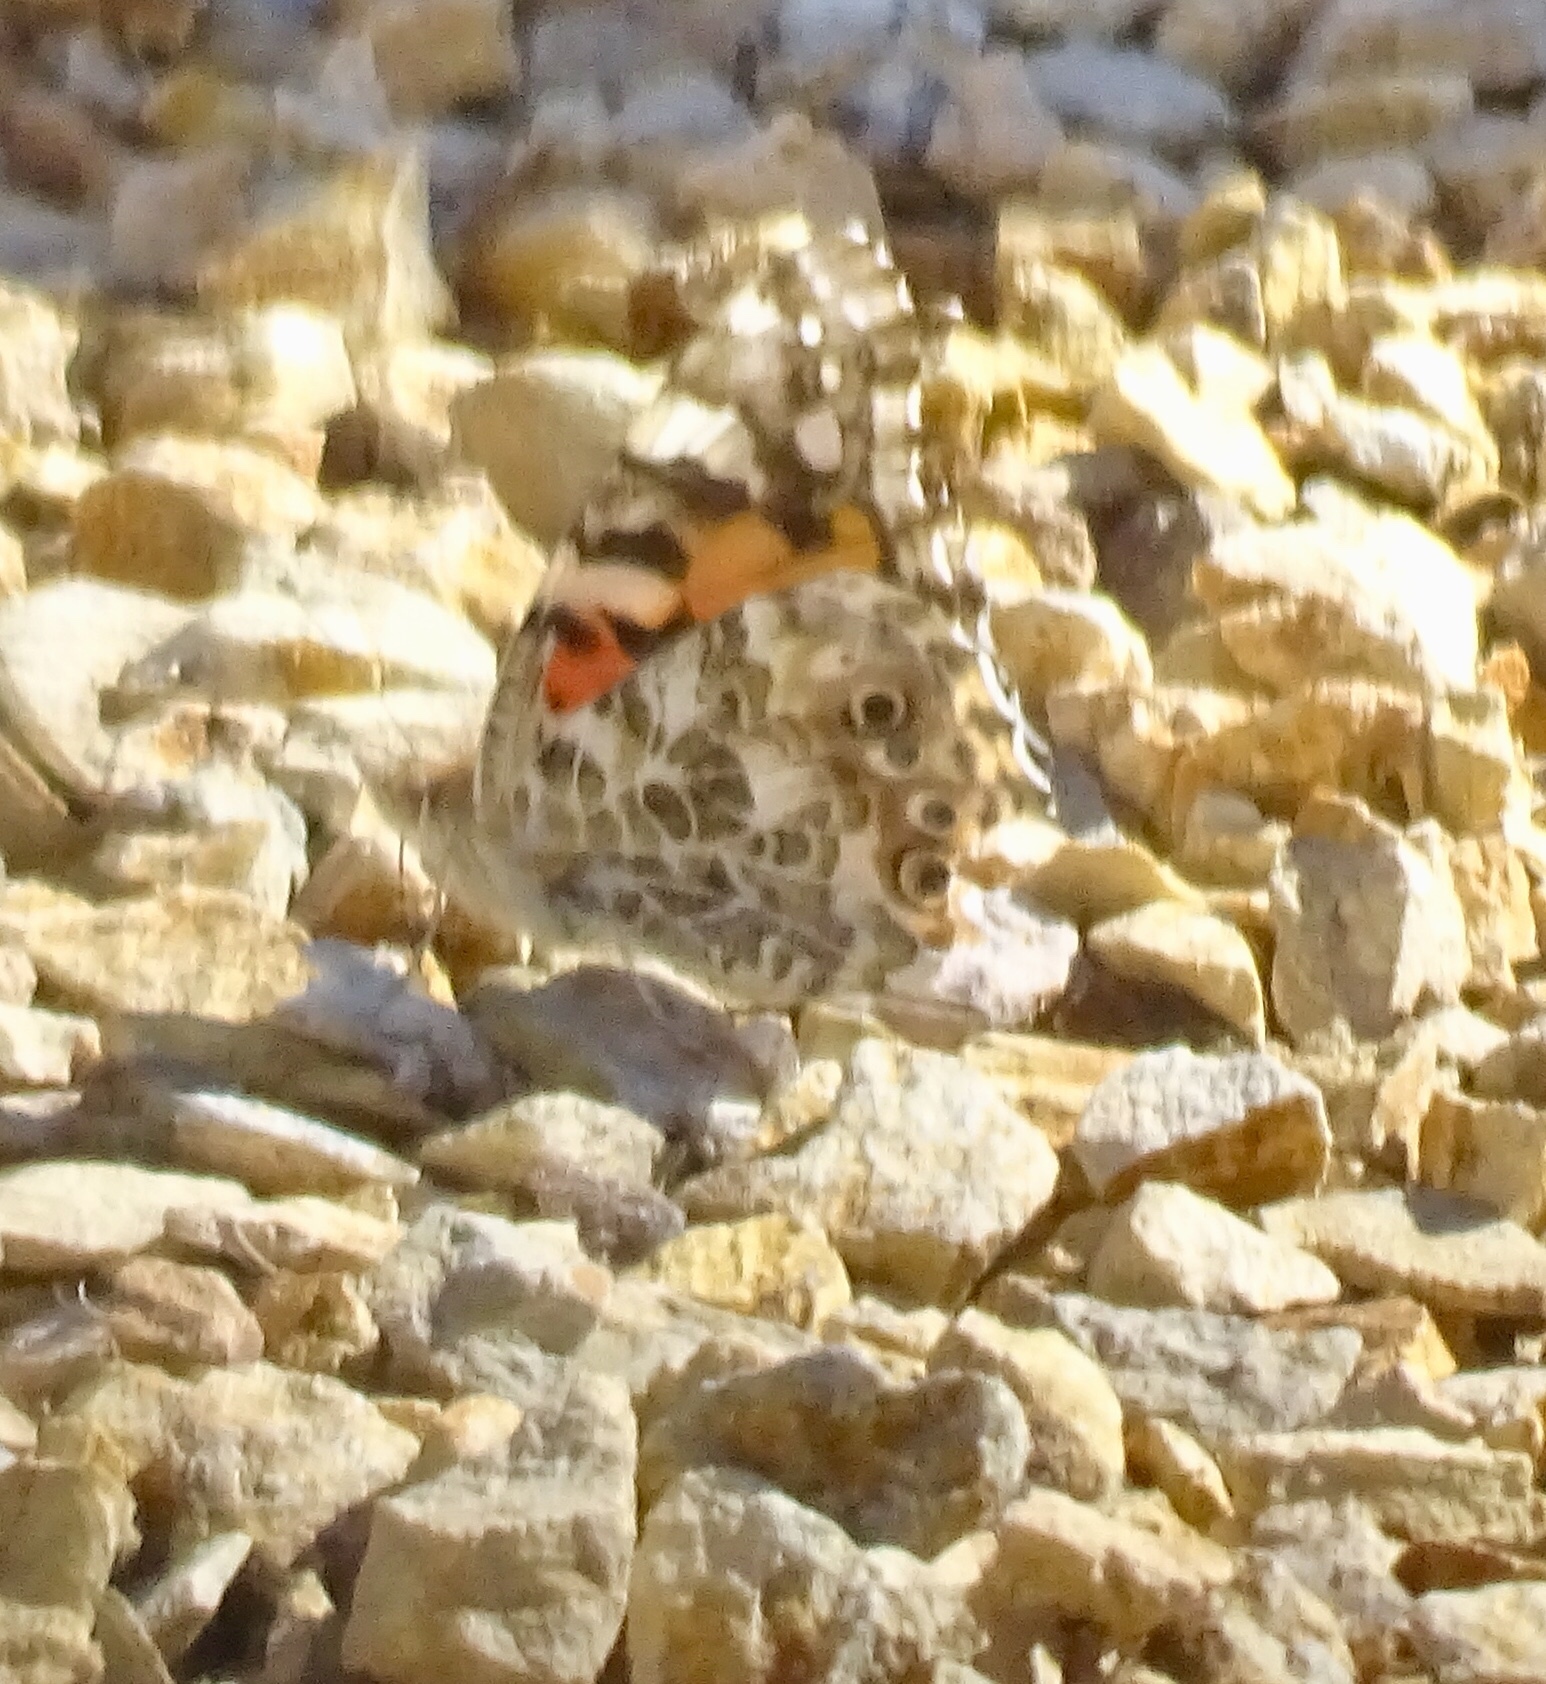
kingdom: Animalia
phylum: Arthropoda
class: Insecta
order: Lepidoptera
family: Nymphalidae
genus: Vanessa
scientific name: Vanessa cardui
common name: Painted lady
